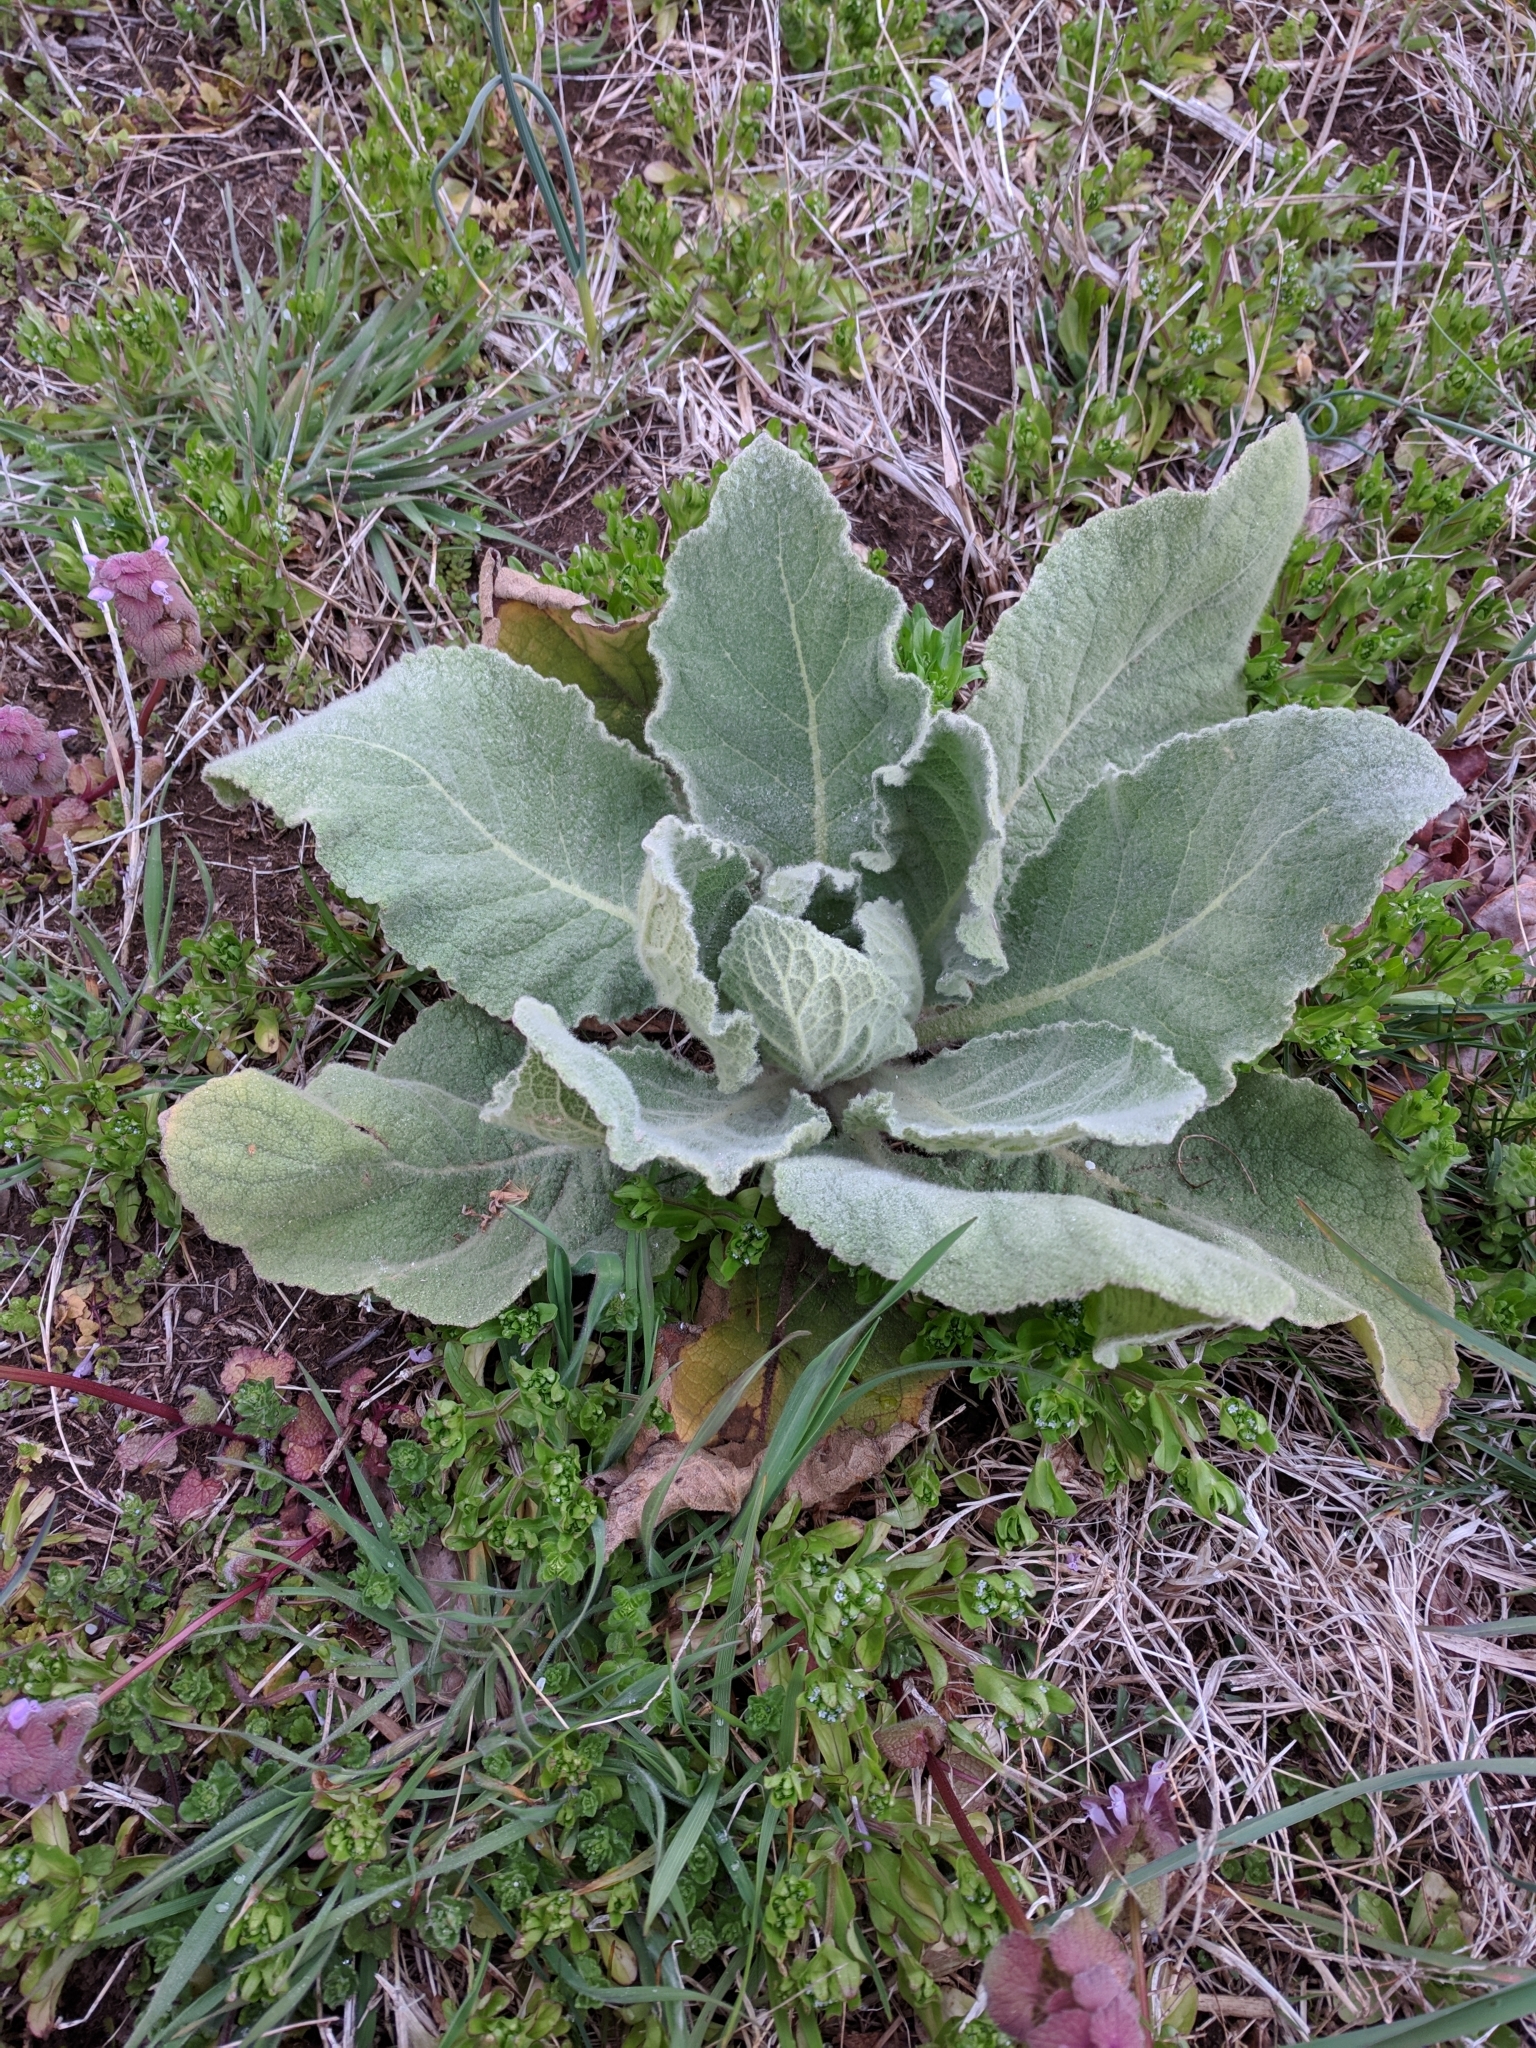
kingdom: Plantae
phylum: Tracheophyta
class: Magnoliopsida
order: Lamiales
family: Scrophulariaceae
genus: Verbascum
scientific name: Verbascum thapsus
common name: Common mullein
